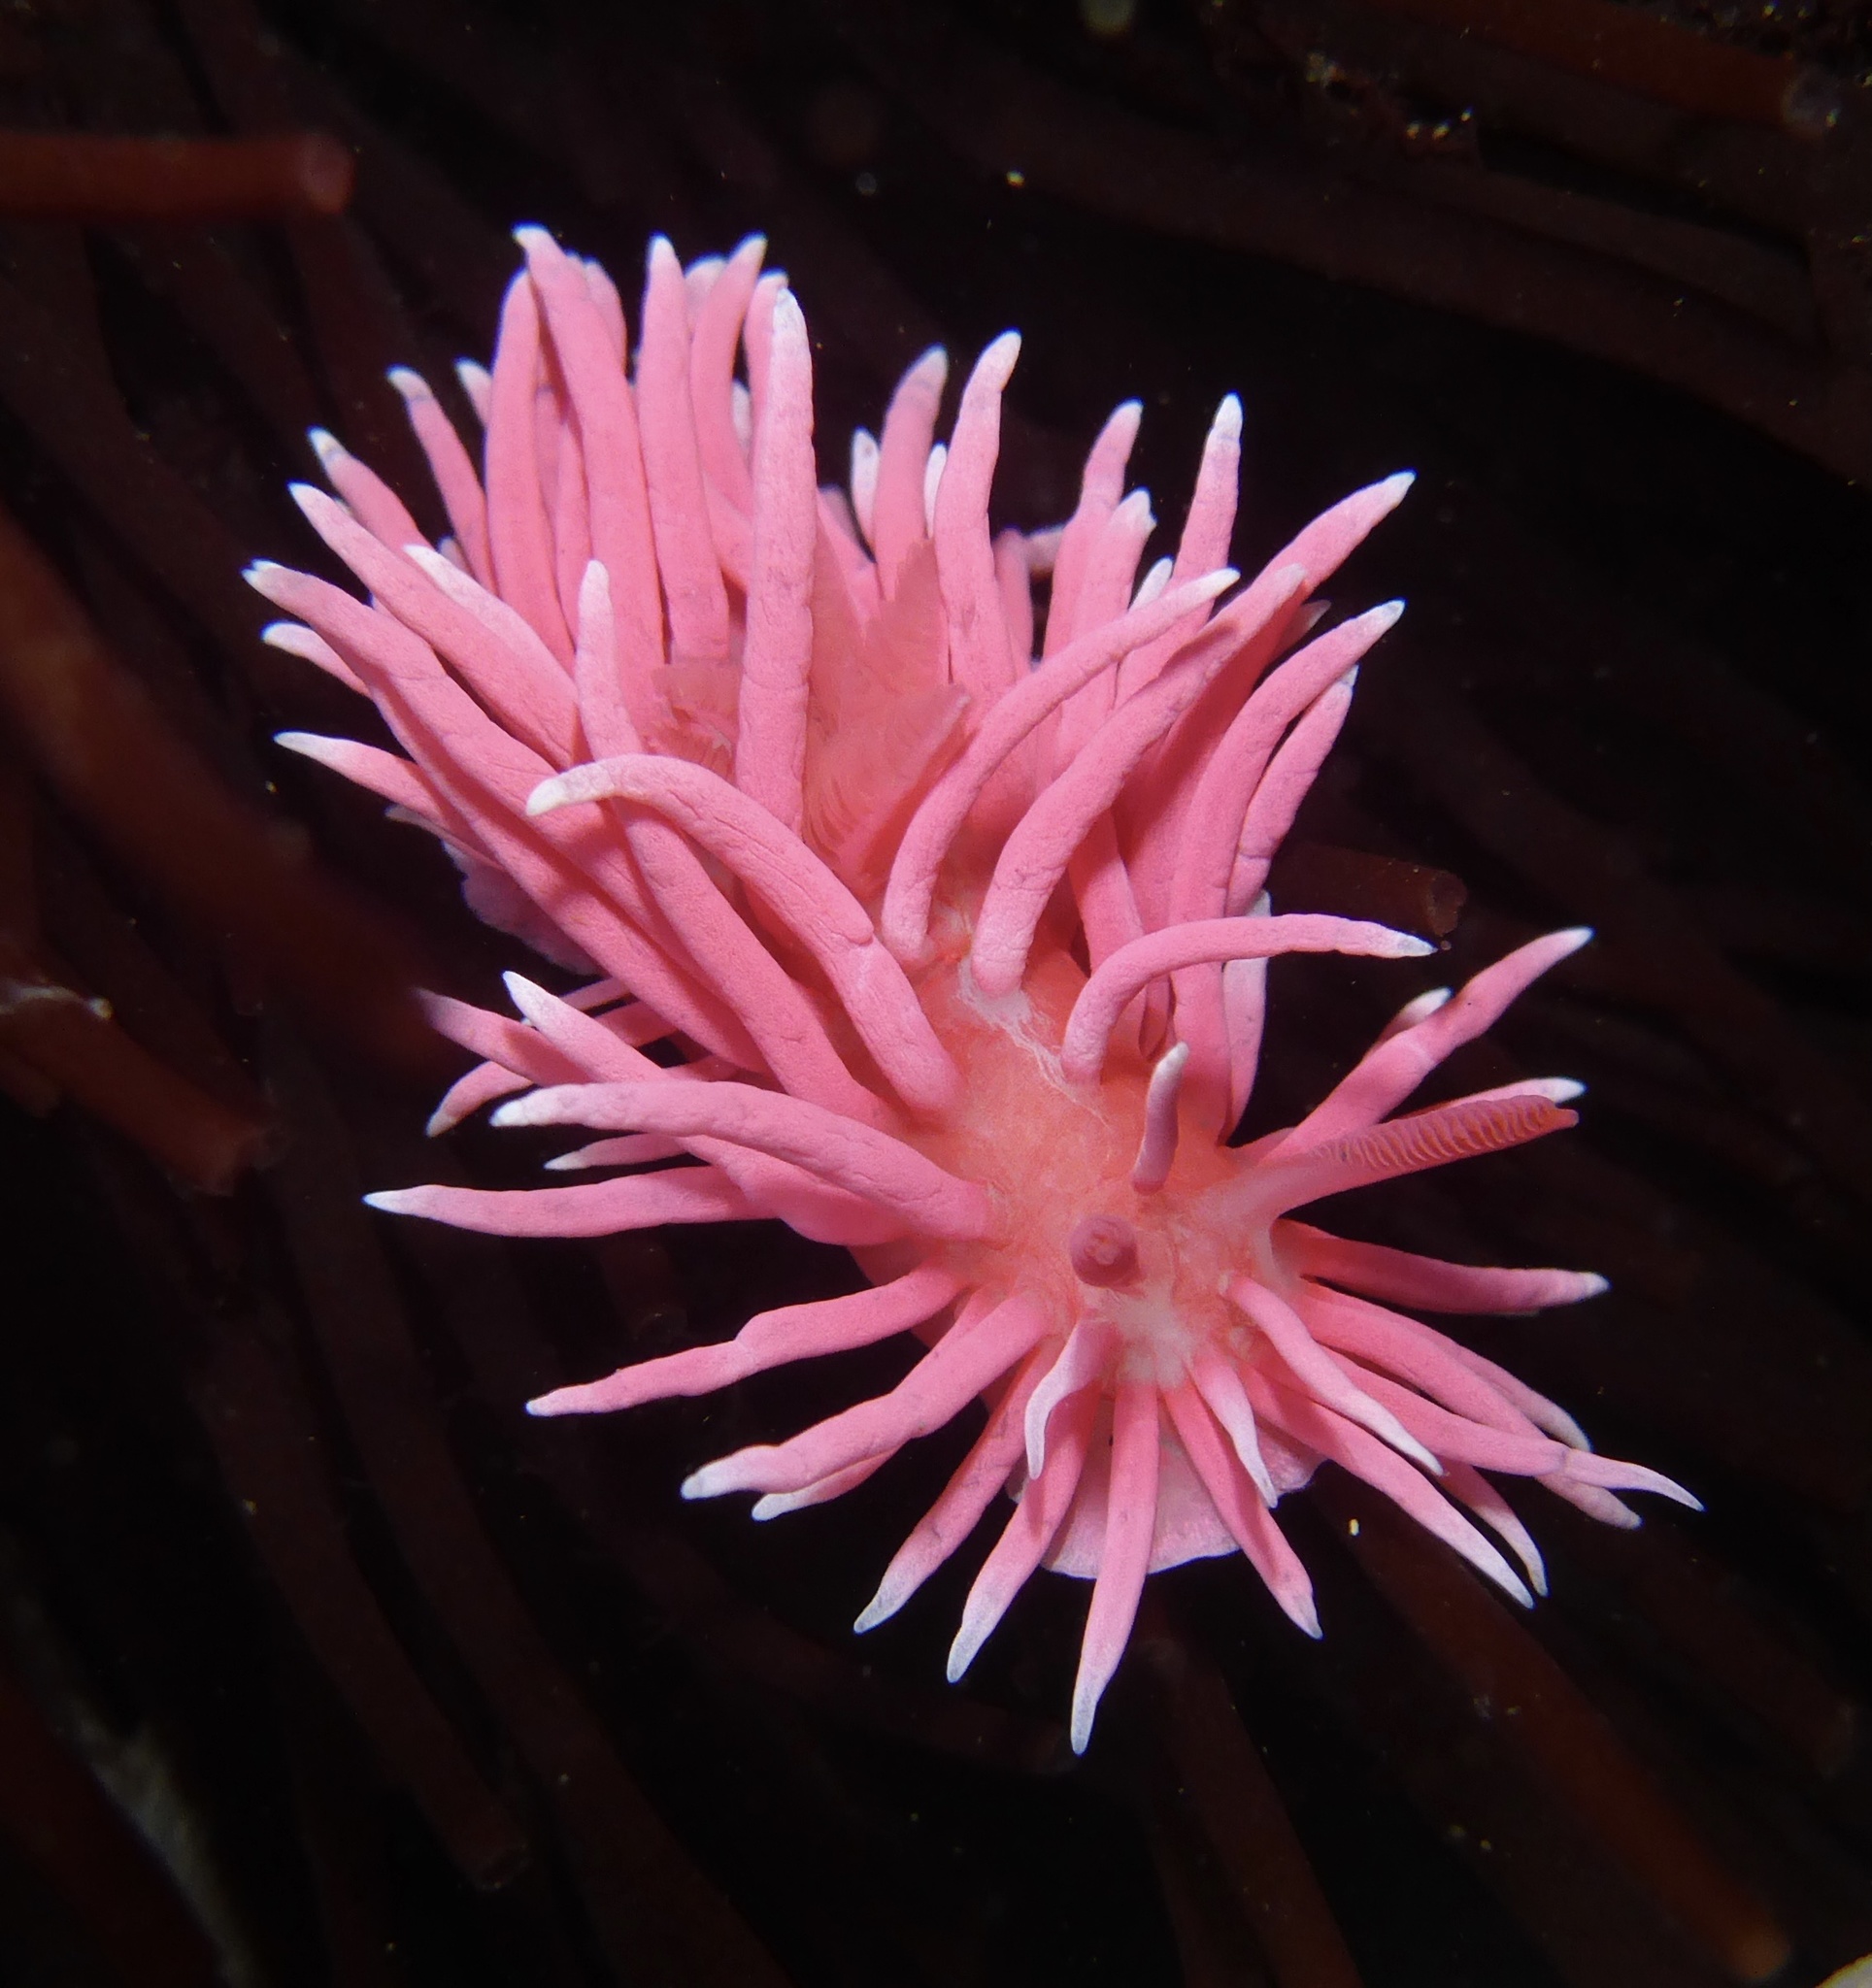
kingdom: Animalia
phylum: Mollusca
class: Gastropoda
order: Nudibranchia
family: Goniodorididae
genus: Okenia
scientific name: Okenia
